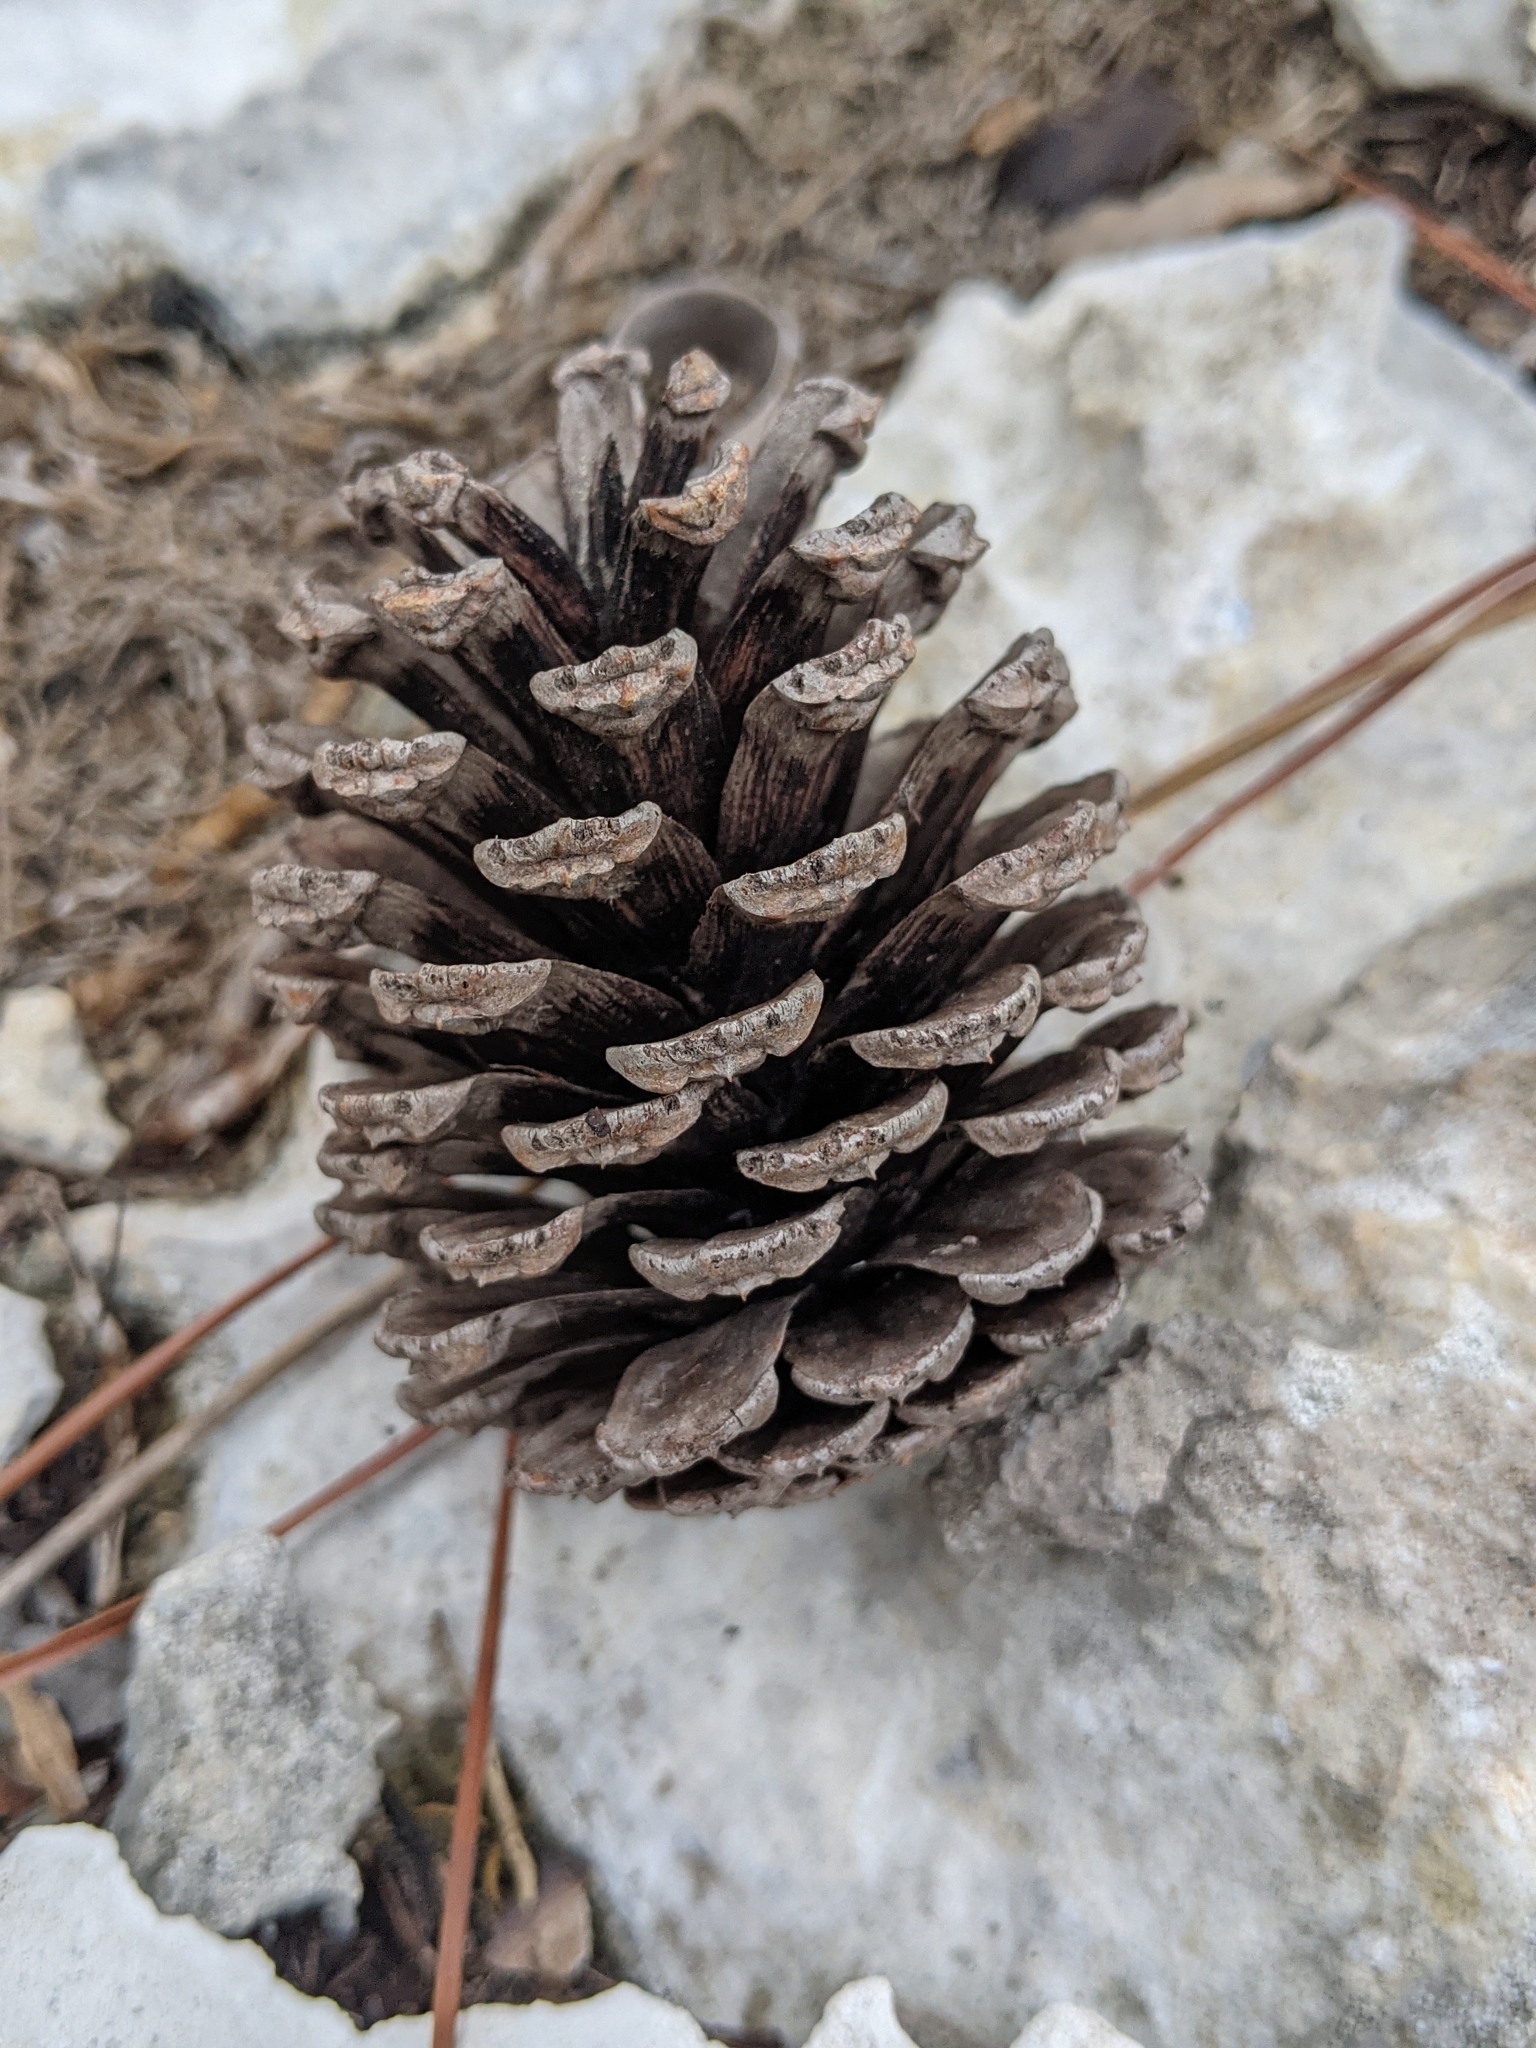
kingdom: Plantae
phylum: Tracheophyta
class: Pinopsida
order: Pinales
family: Pinaceae
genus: Pinus
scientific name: Pinus elliottii
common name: Slash pine
